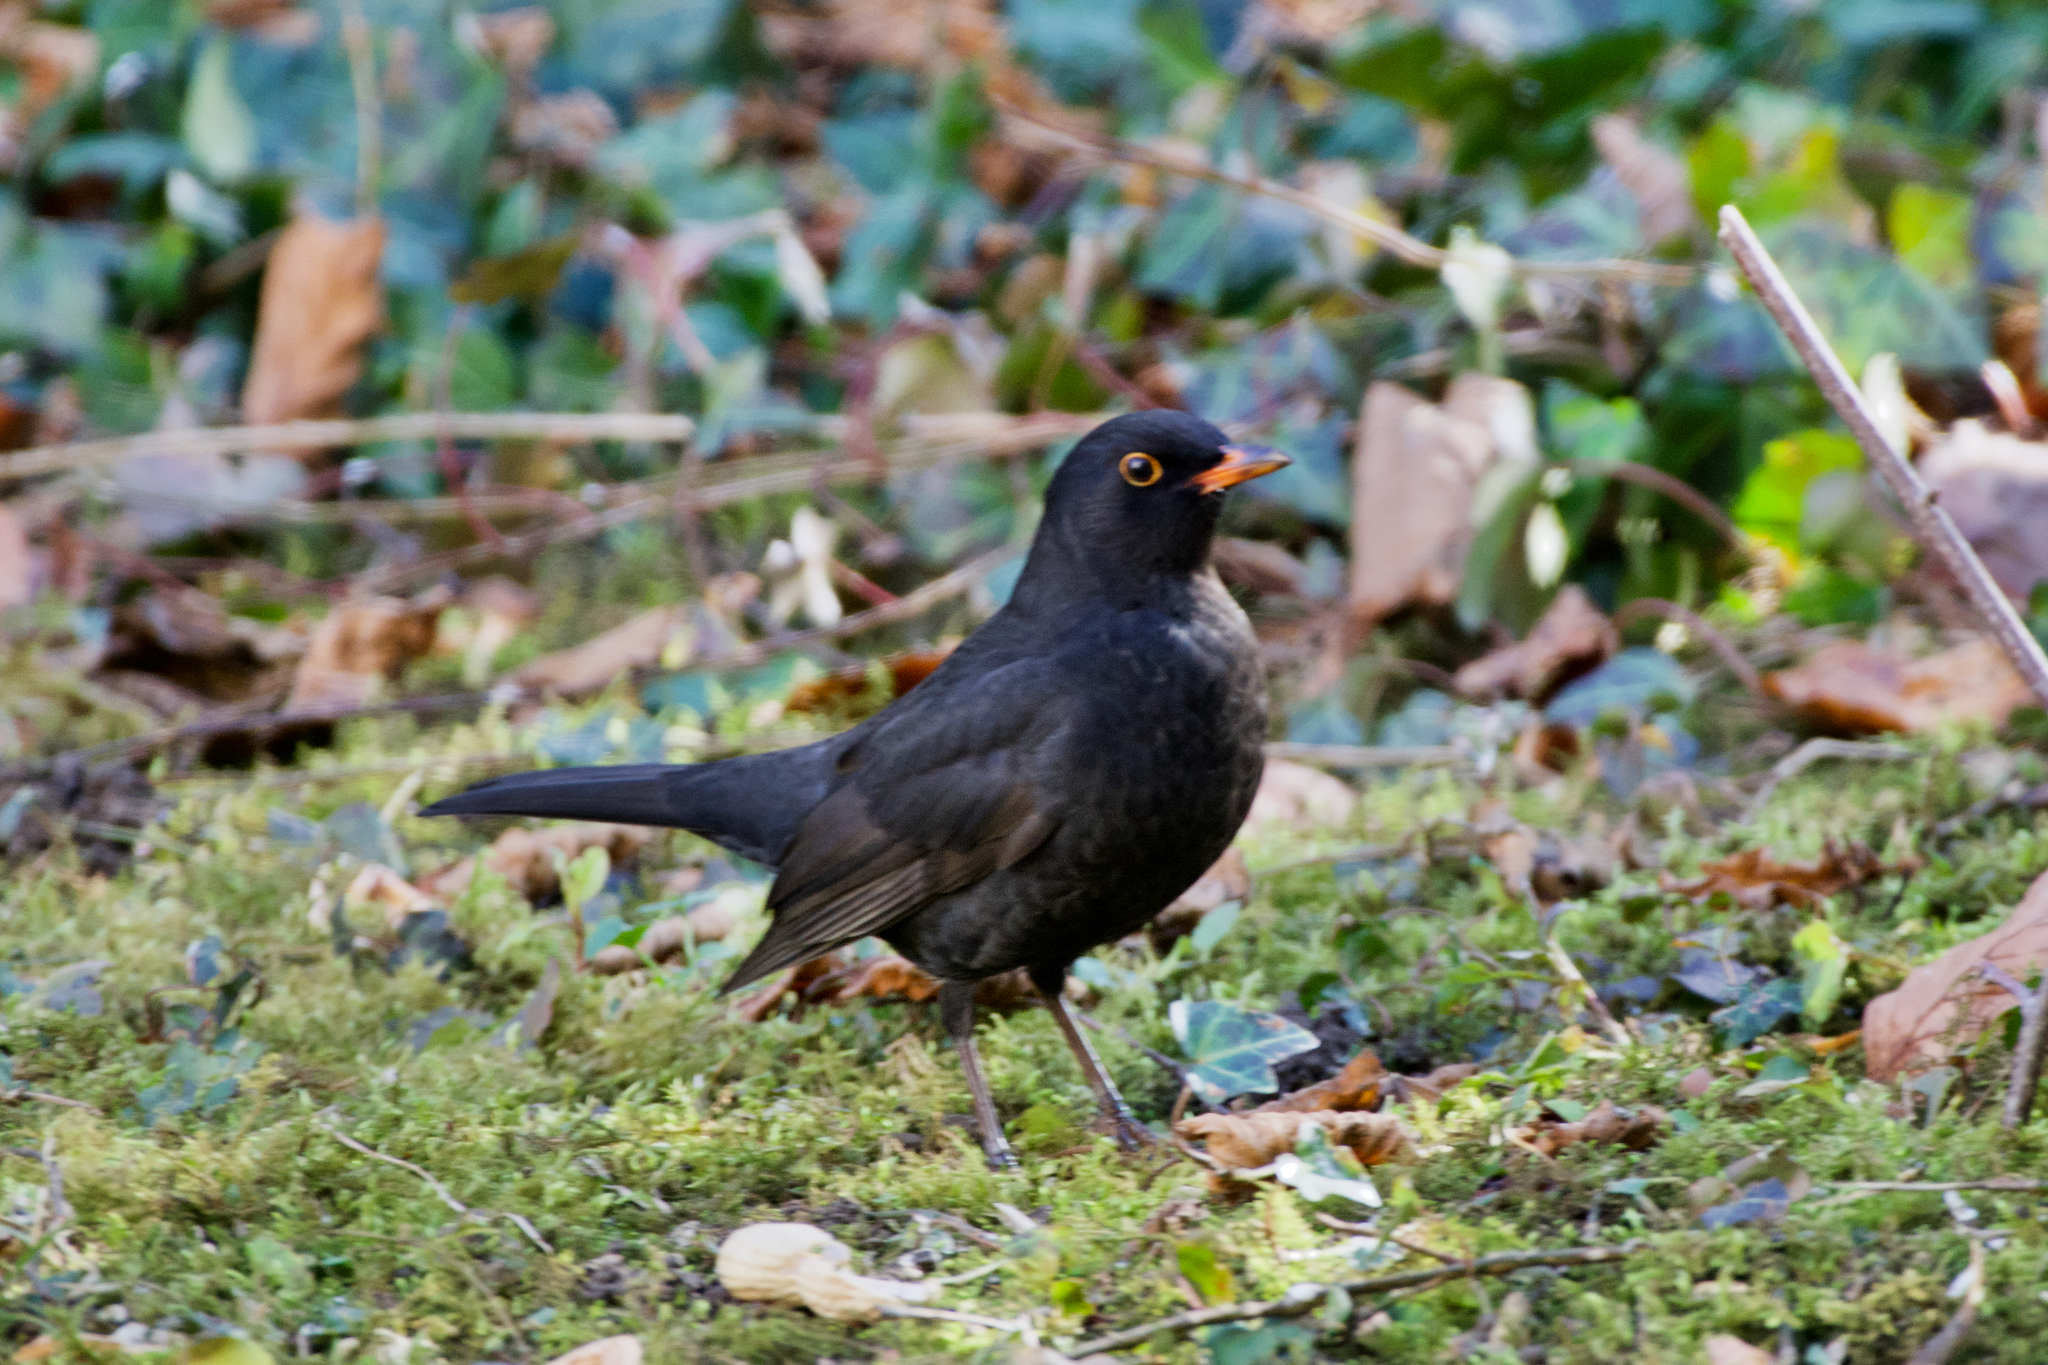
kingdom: Animalia
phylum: Chordata
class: Aves
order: Passeriformes
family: Turdidae
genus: Turdus
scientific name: Turdus merula
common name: Common blackbird
